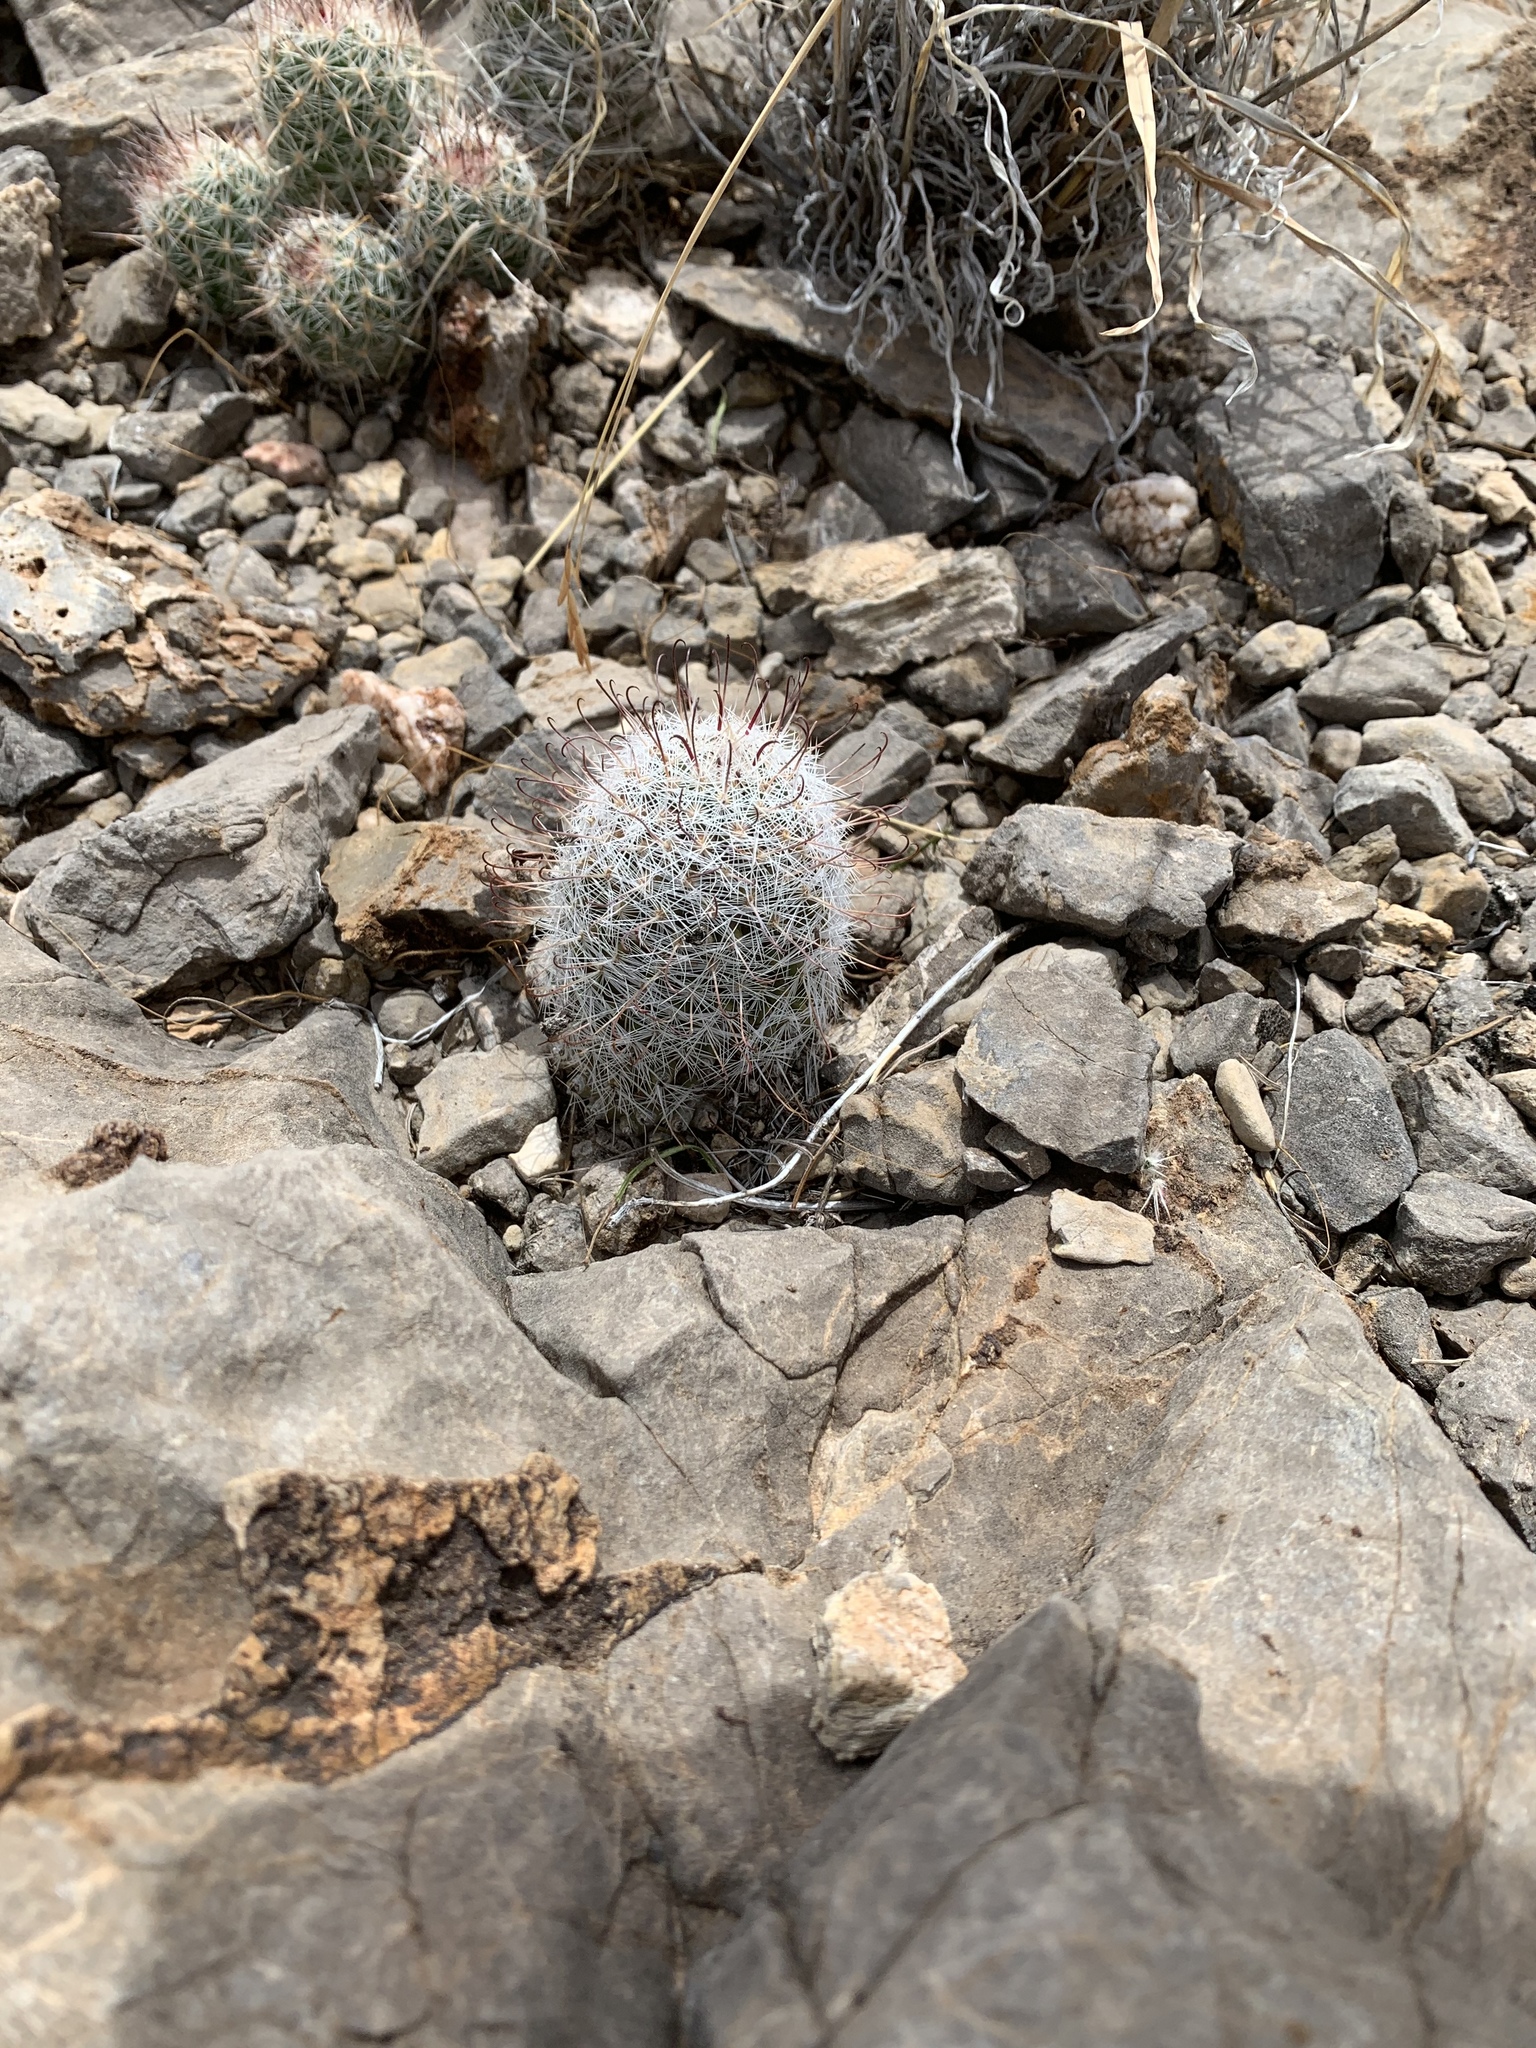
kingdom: Plantae
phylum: Tracheophyta
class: Magnoliopsida
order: Caryophyllales
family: Cactaceae
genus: Cochemiea
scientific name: Cochemiea grahamii
